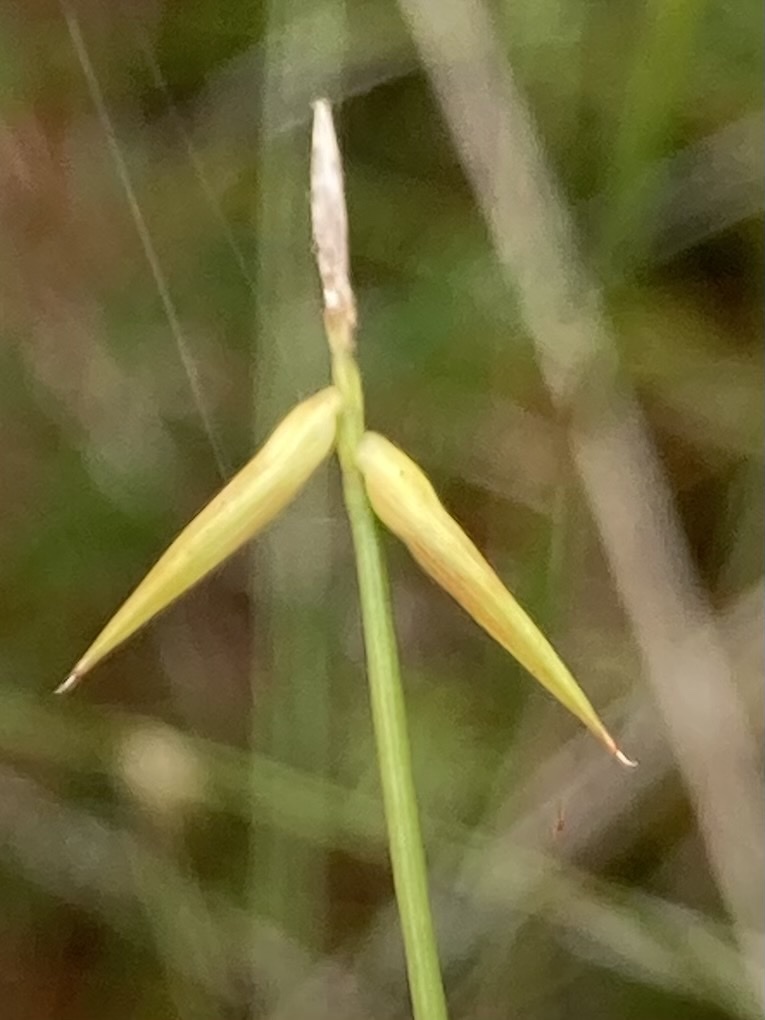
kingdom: Plantae
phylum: Tracheophyta
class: Liliopsida
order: Poales
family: Cyperaceae
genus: Carex
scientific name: Carex pauciflora
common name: Few-flowered sedge
